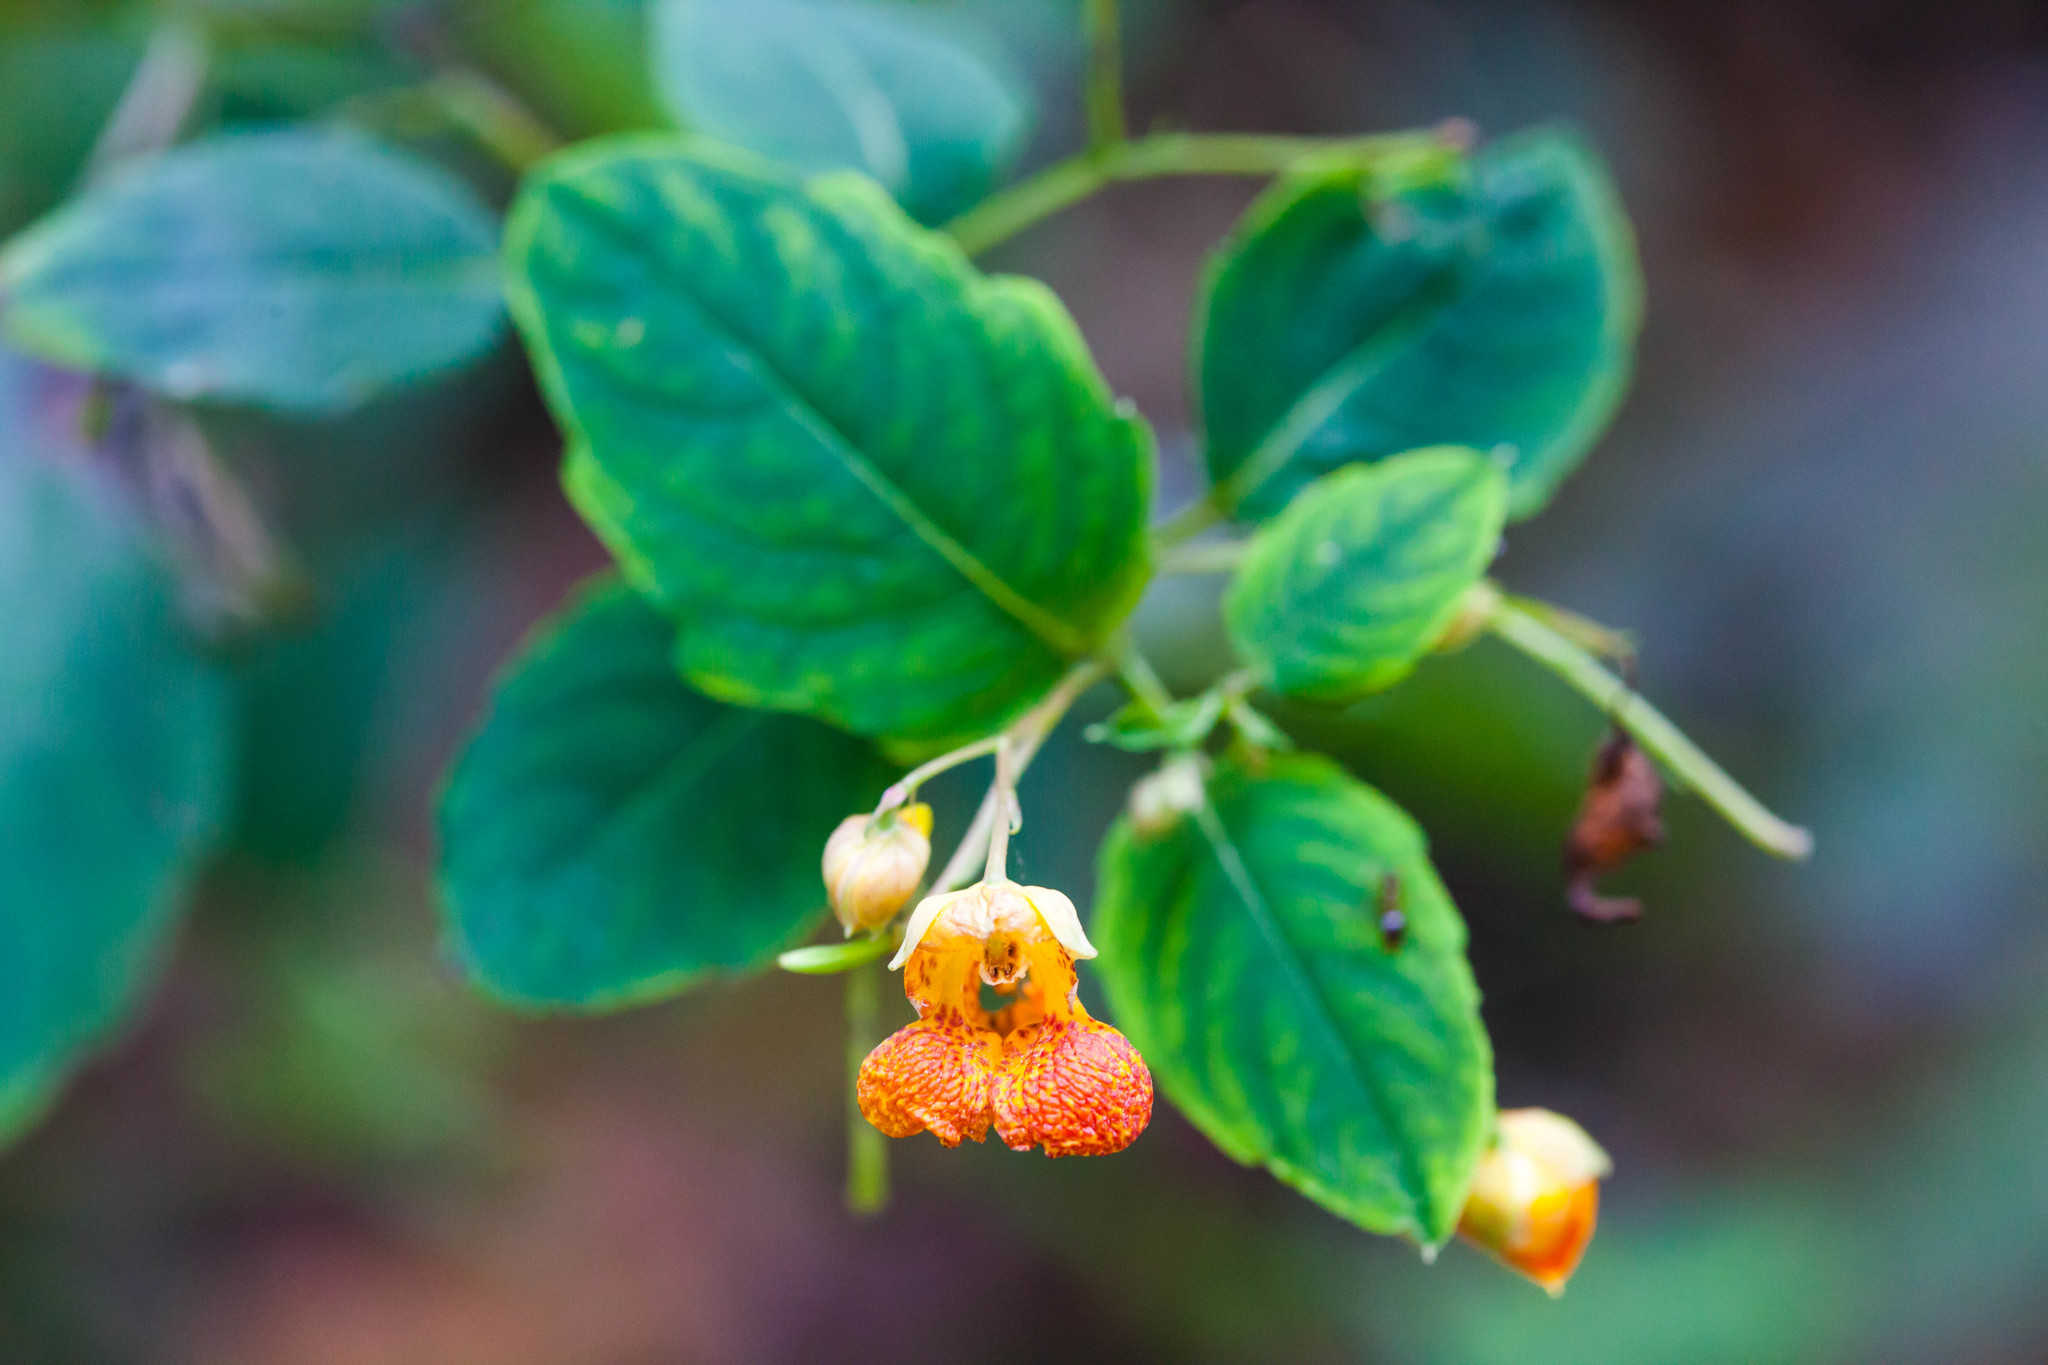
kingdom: Plantae
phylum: Tracheophyta
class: Magnoliopsida
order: Ericales
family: Balsaminaceae
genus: Impatiens
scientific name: Impatiens capensis
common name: Orange balsam
